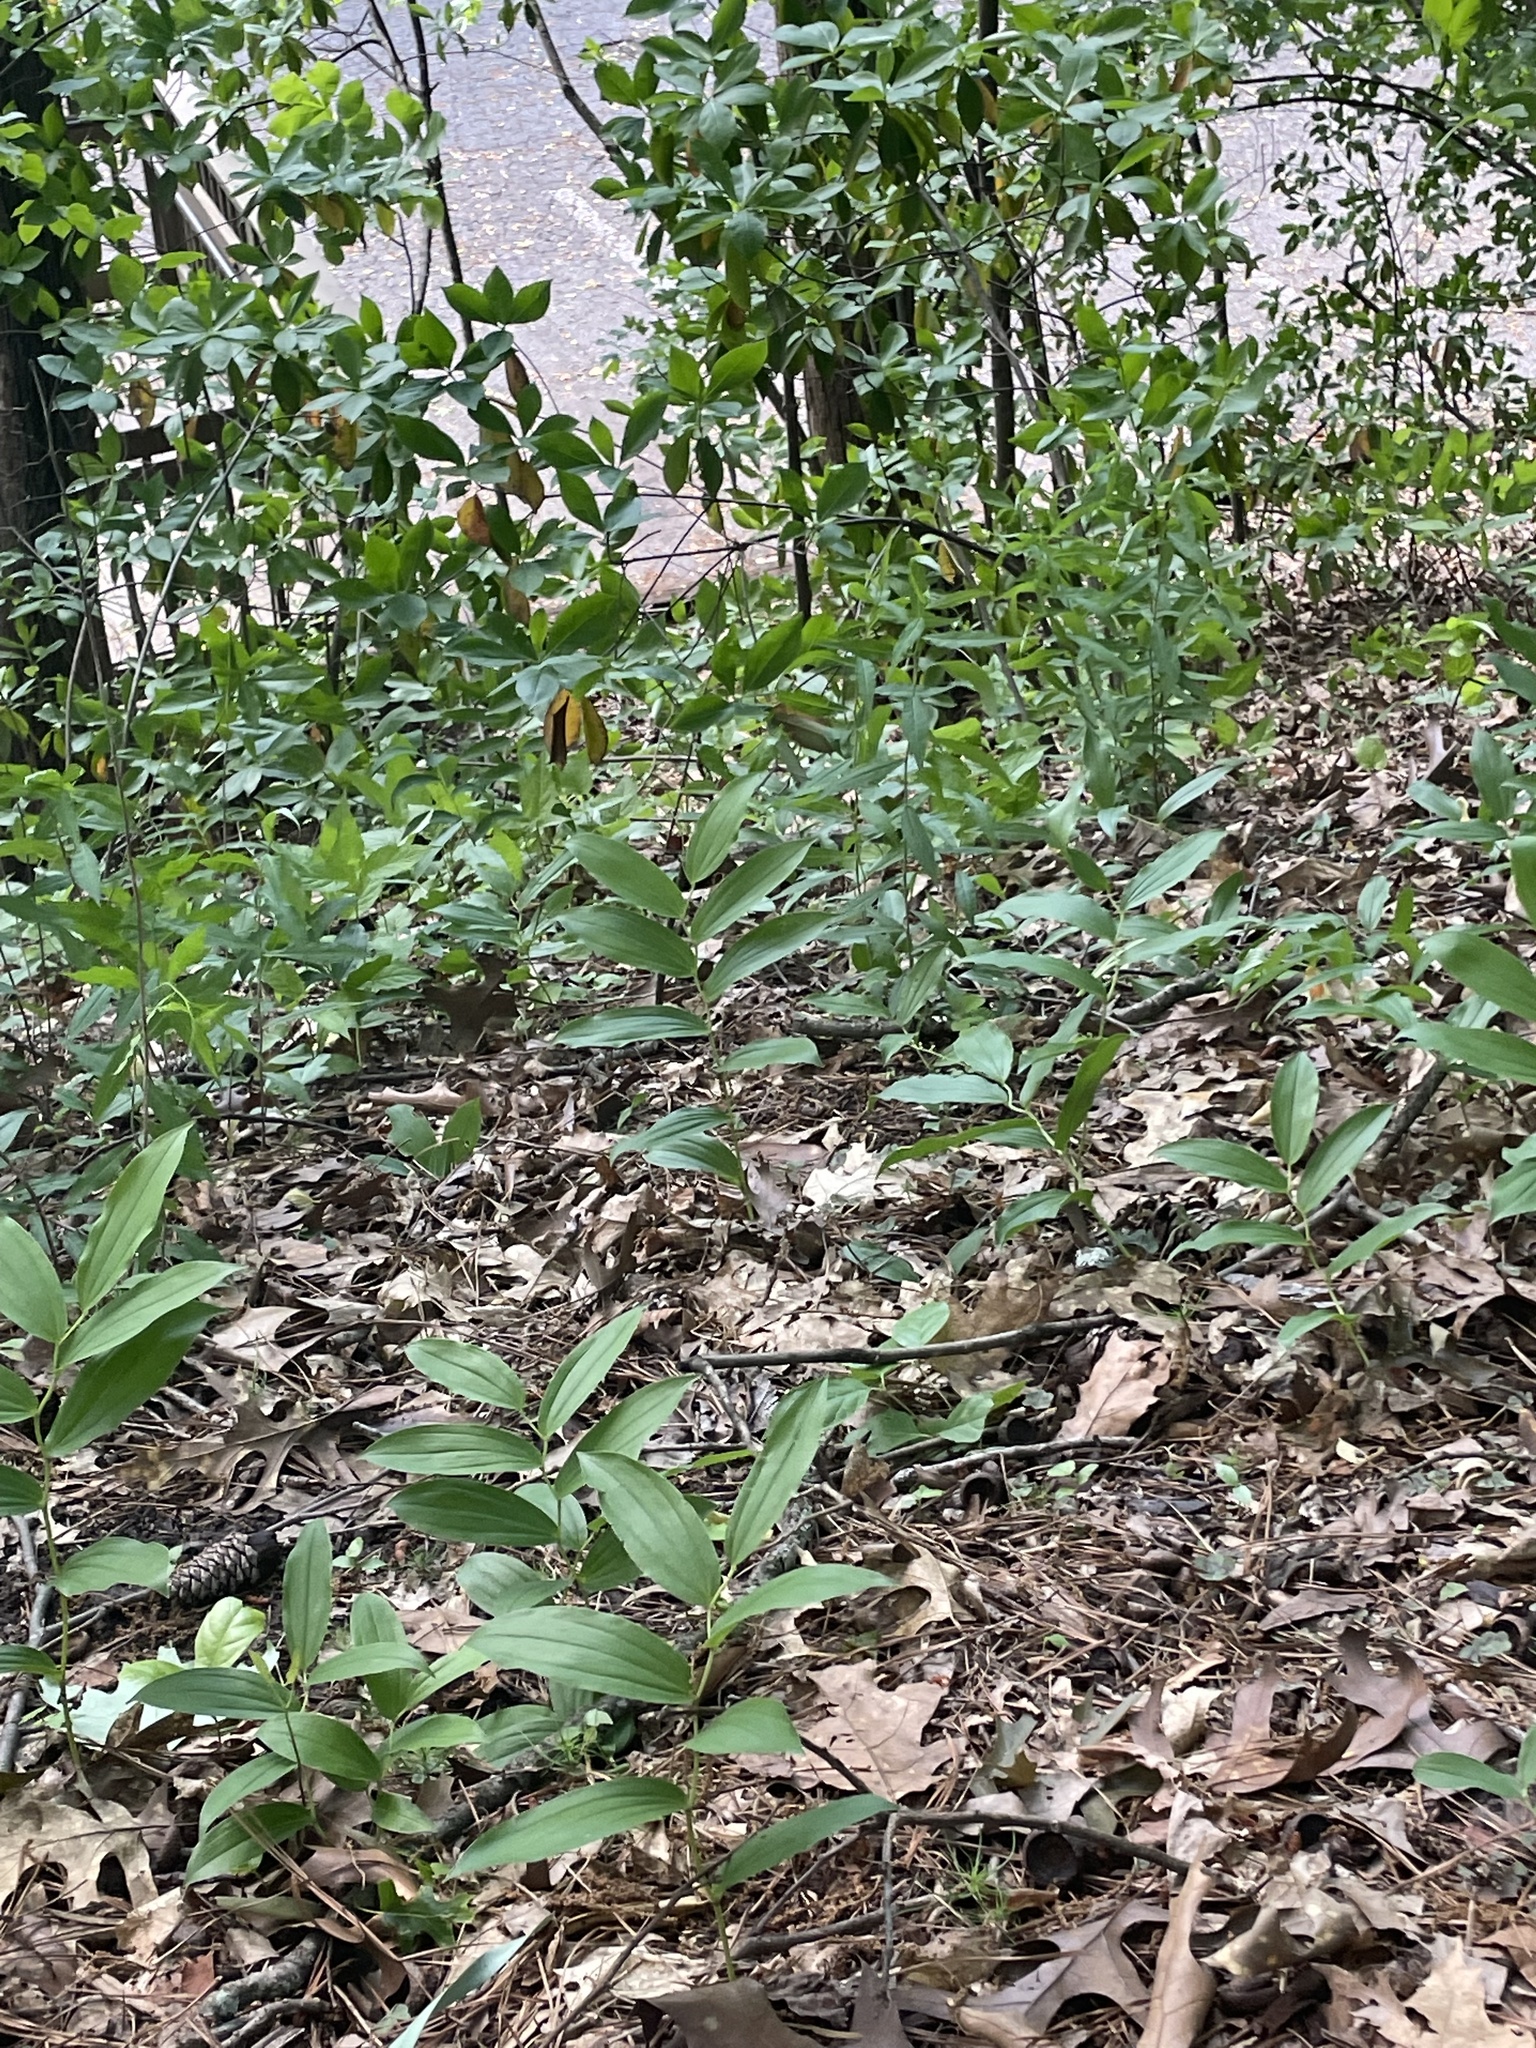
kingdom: Plantae
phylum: Tracheophyta
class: Liliopsida
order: Asparagales
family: Asparagaceae
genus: Maianthemum
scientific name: Maianthemum racemosum
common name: False spikenard
